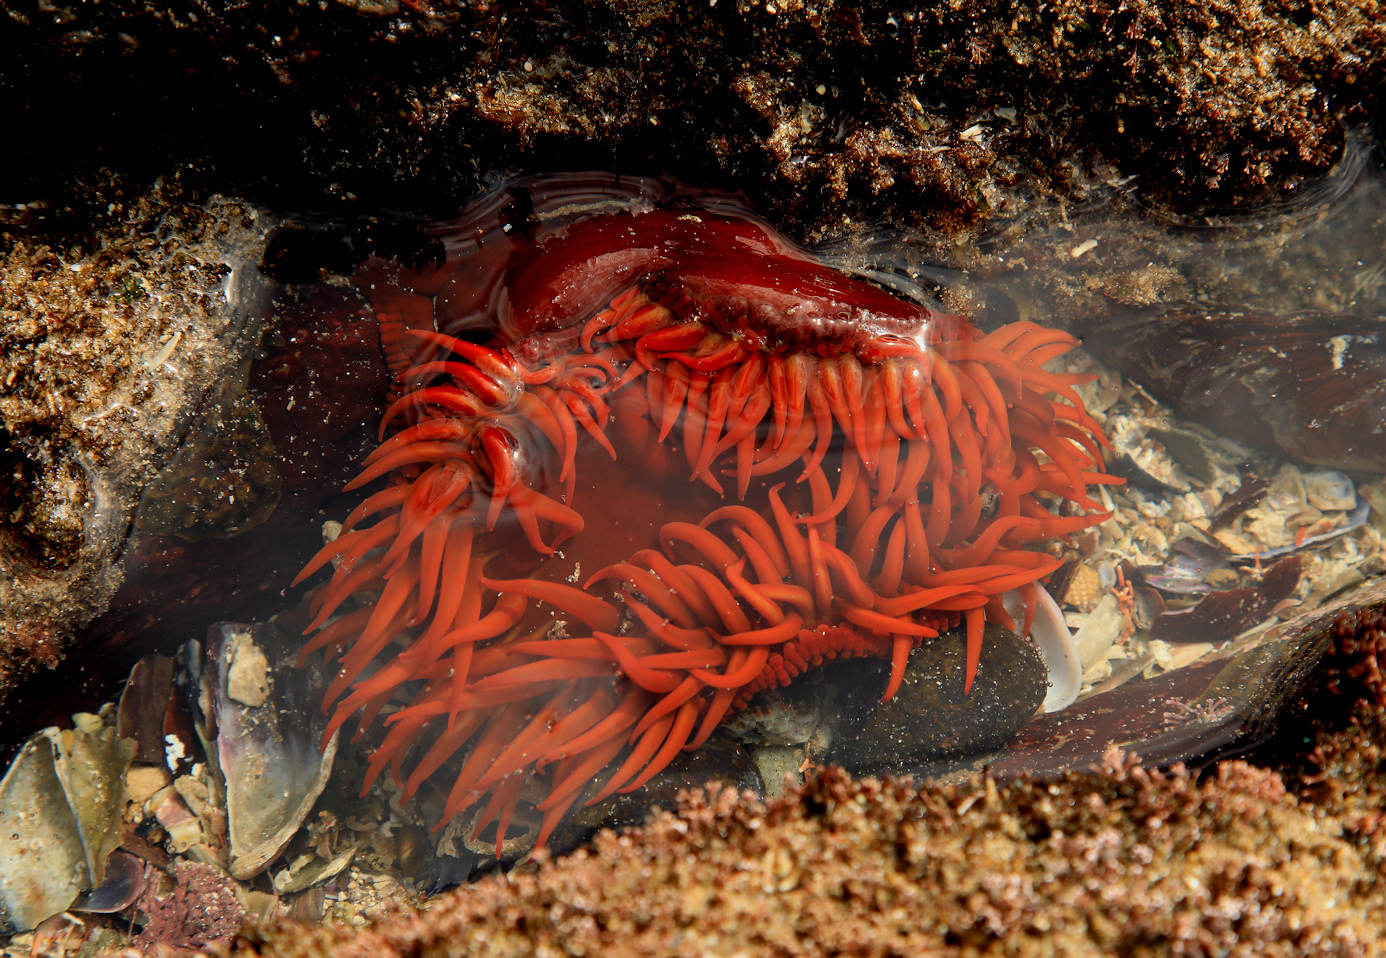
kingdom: Animalia
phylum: Cnidaria
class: Anthozoa
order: Actiniaria
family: Actiniidae
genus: Pseudactinia
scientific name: Pseudactinia flagellifera
